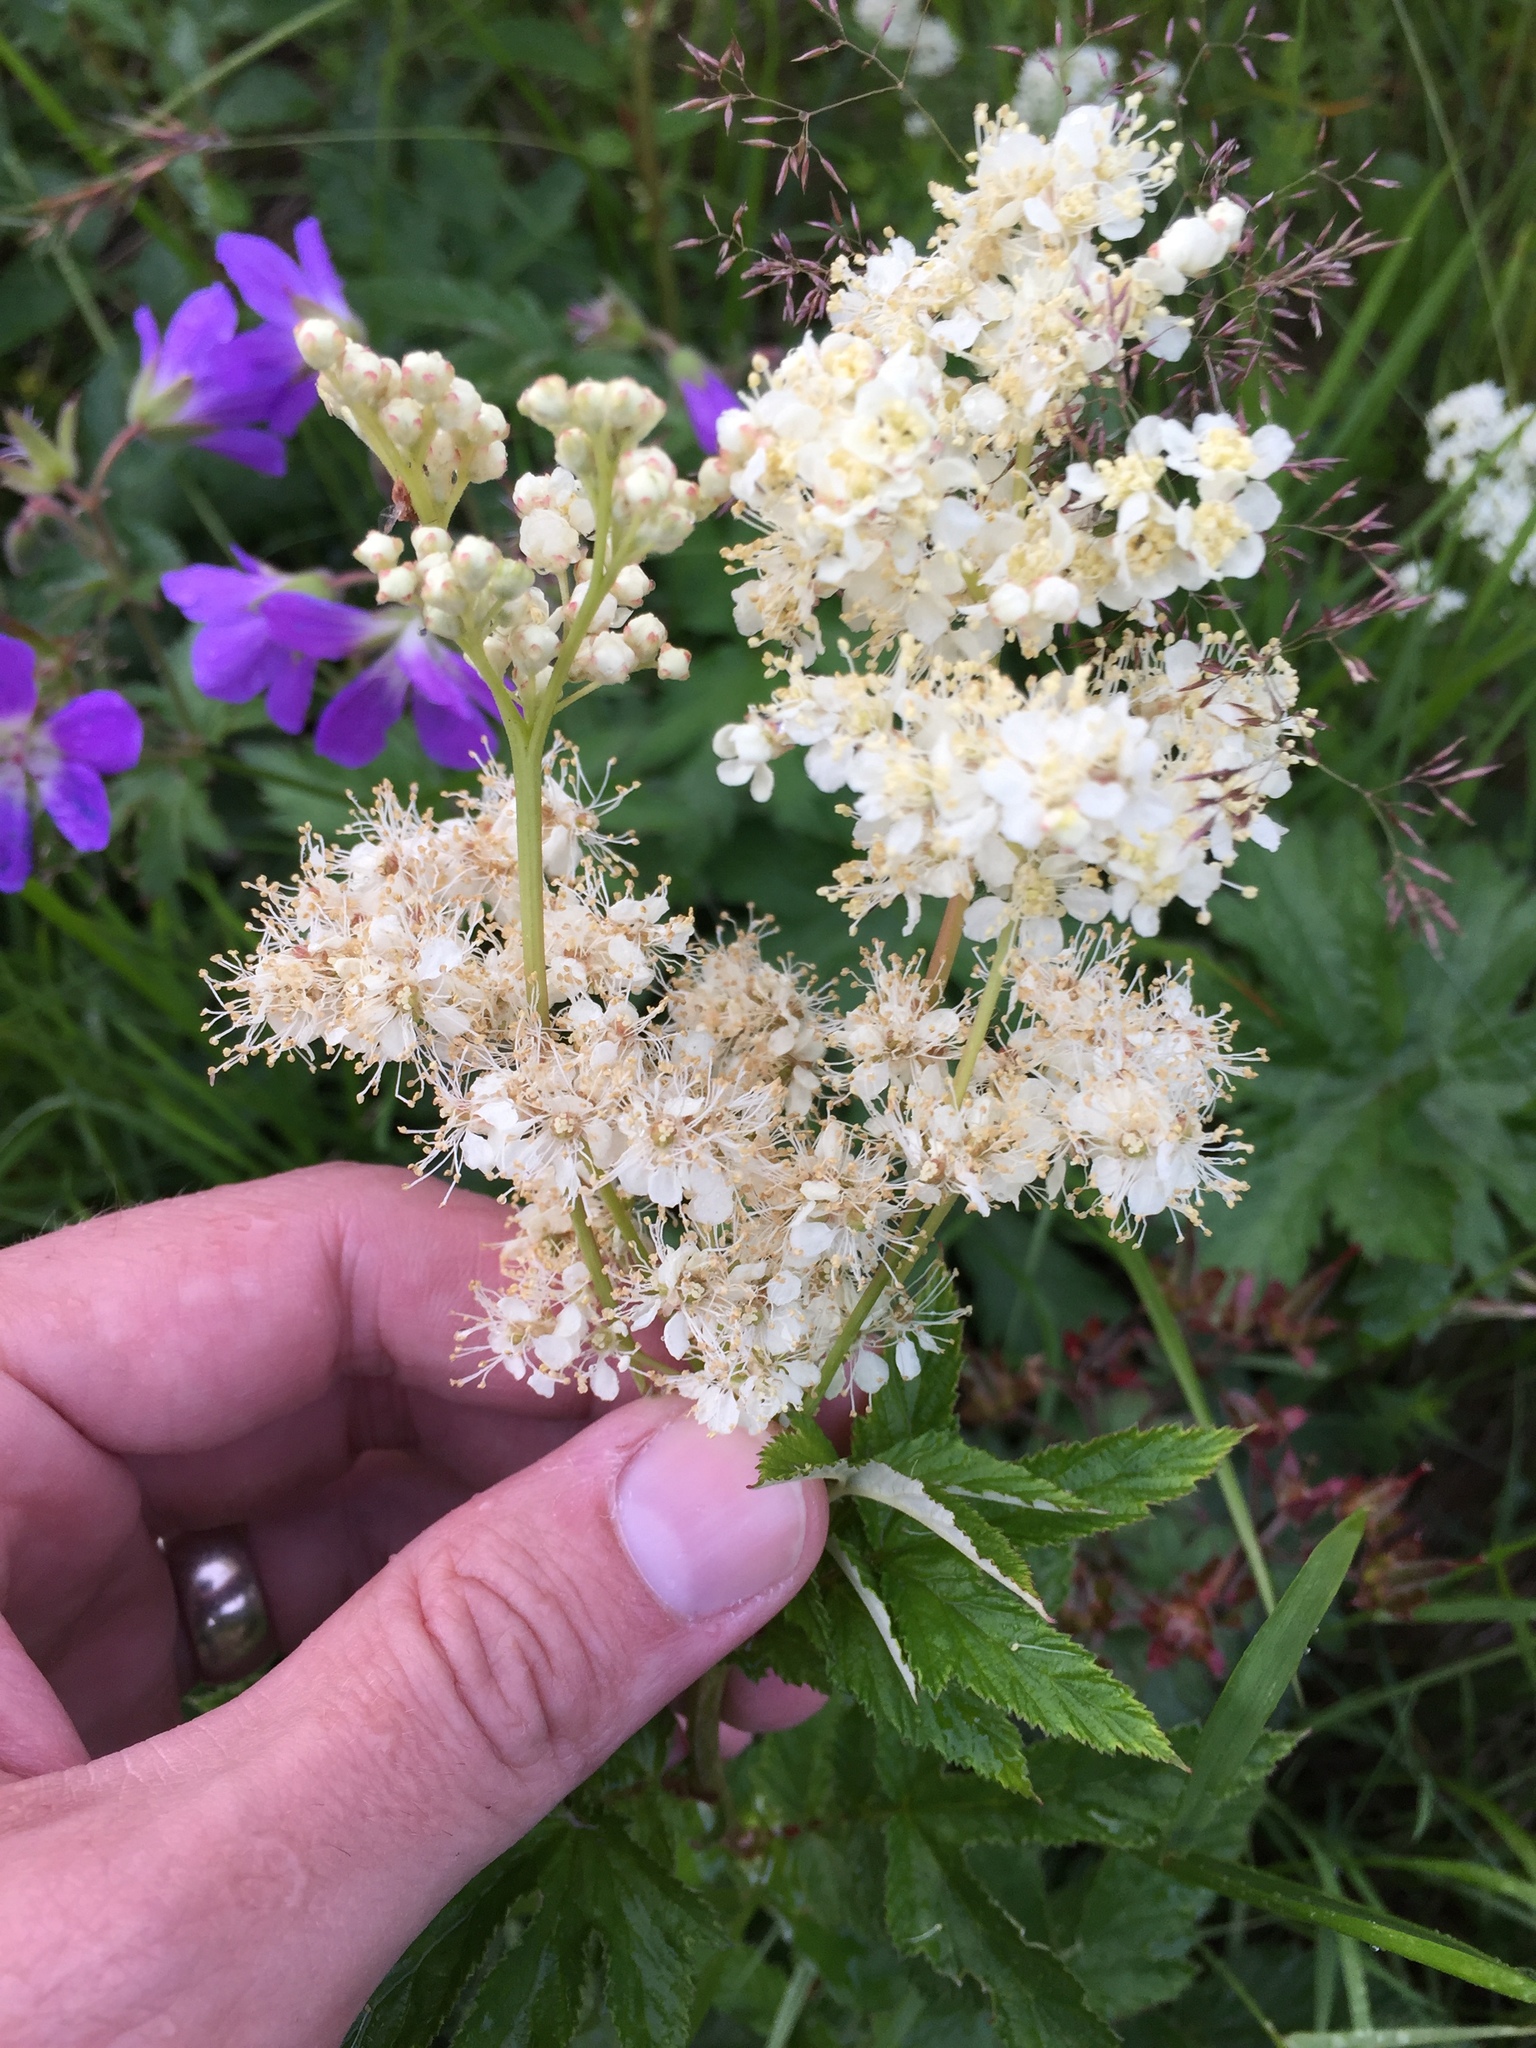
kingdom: Plantae
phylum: Tracheophyta
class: Magnoliopsida
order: Rosales
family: Rosaceae
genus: Filipendula
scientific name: Filipendula ulmaria
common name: Meadowsweet
